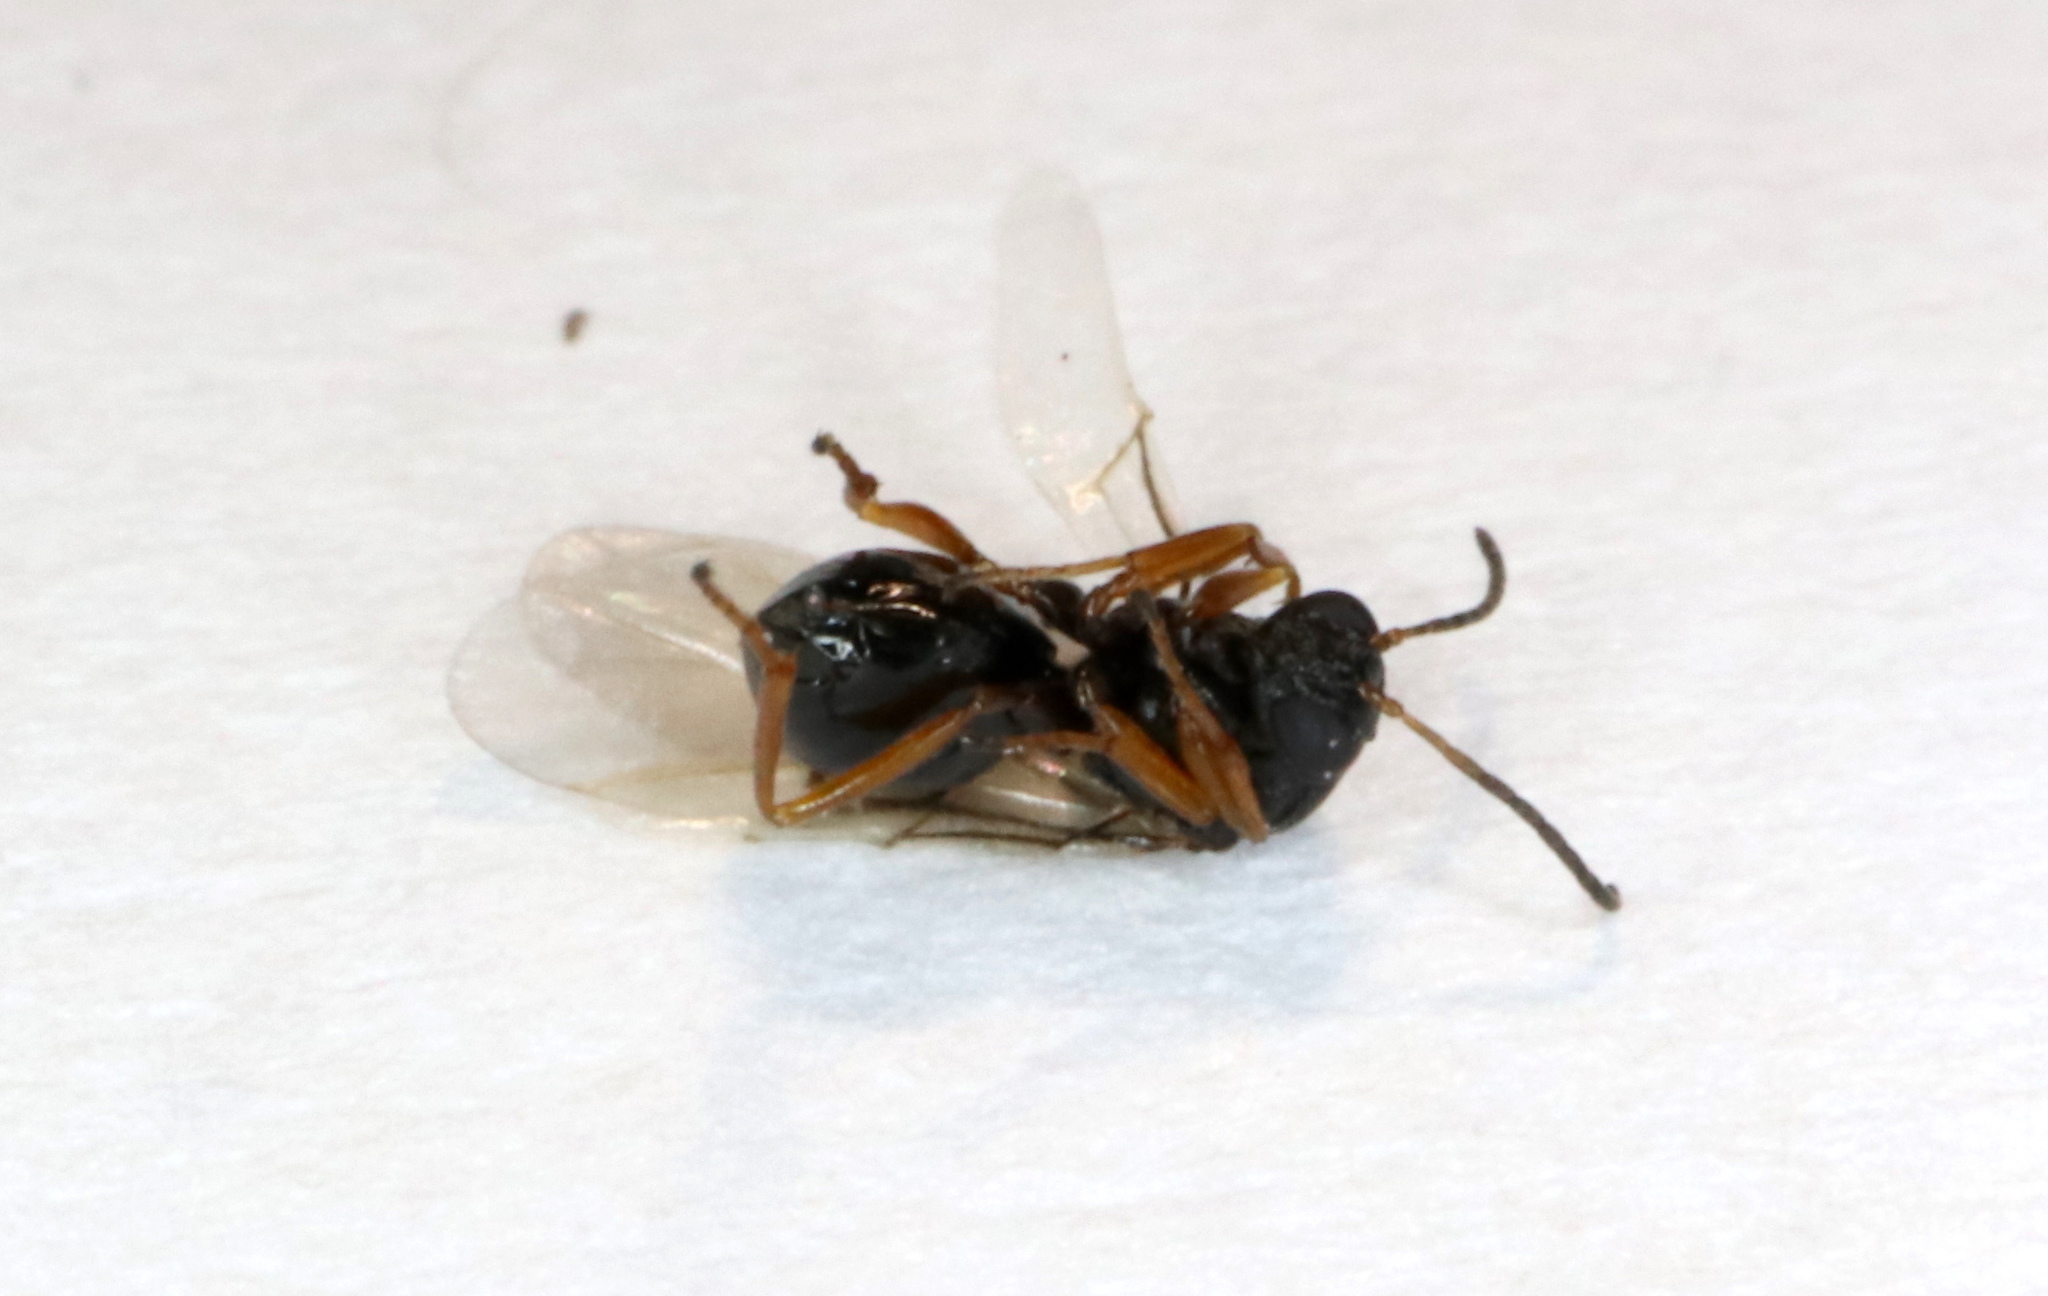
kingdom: Animalia
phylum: Arthropoda
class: Insecta
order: Hymenoptera
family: Cynipidae
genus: Neuroterus
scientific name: Neuroterus
